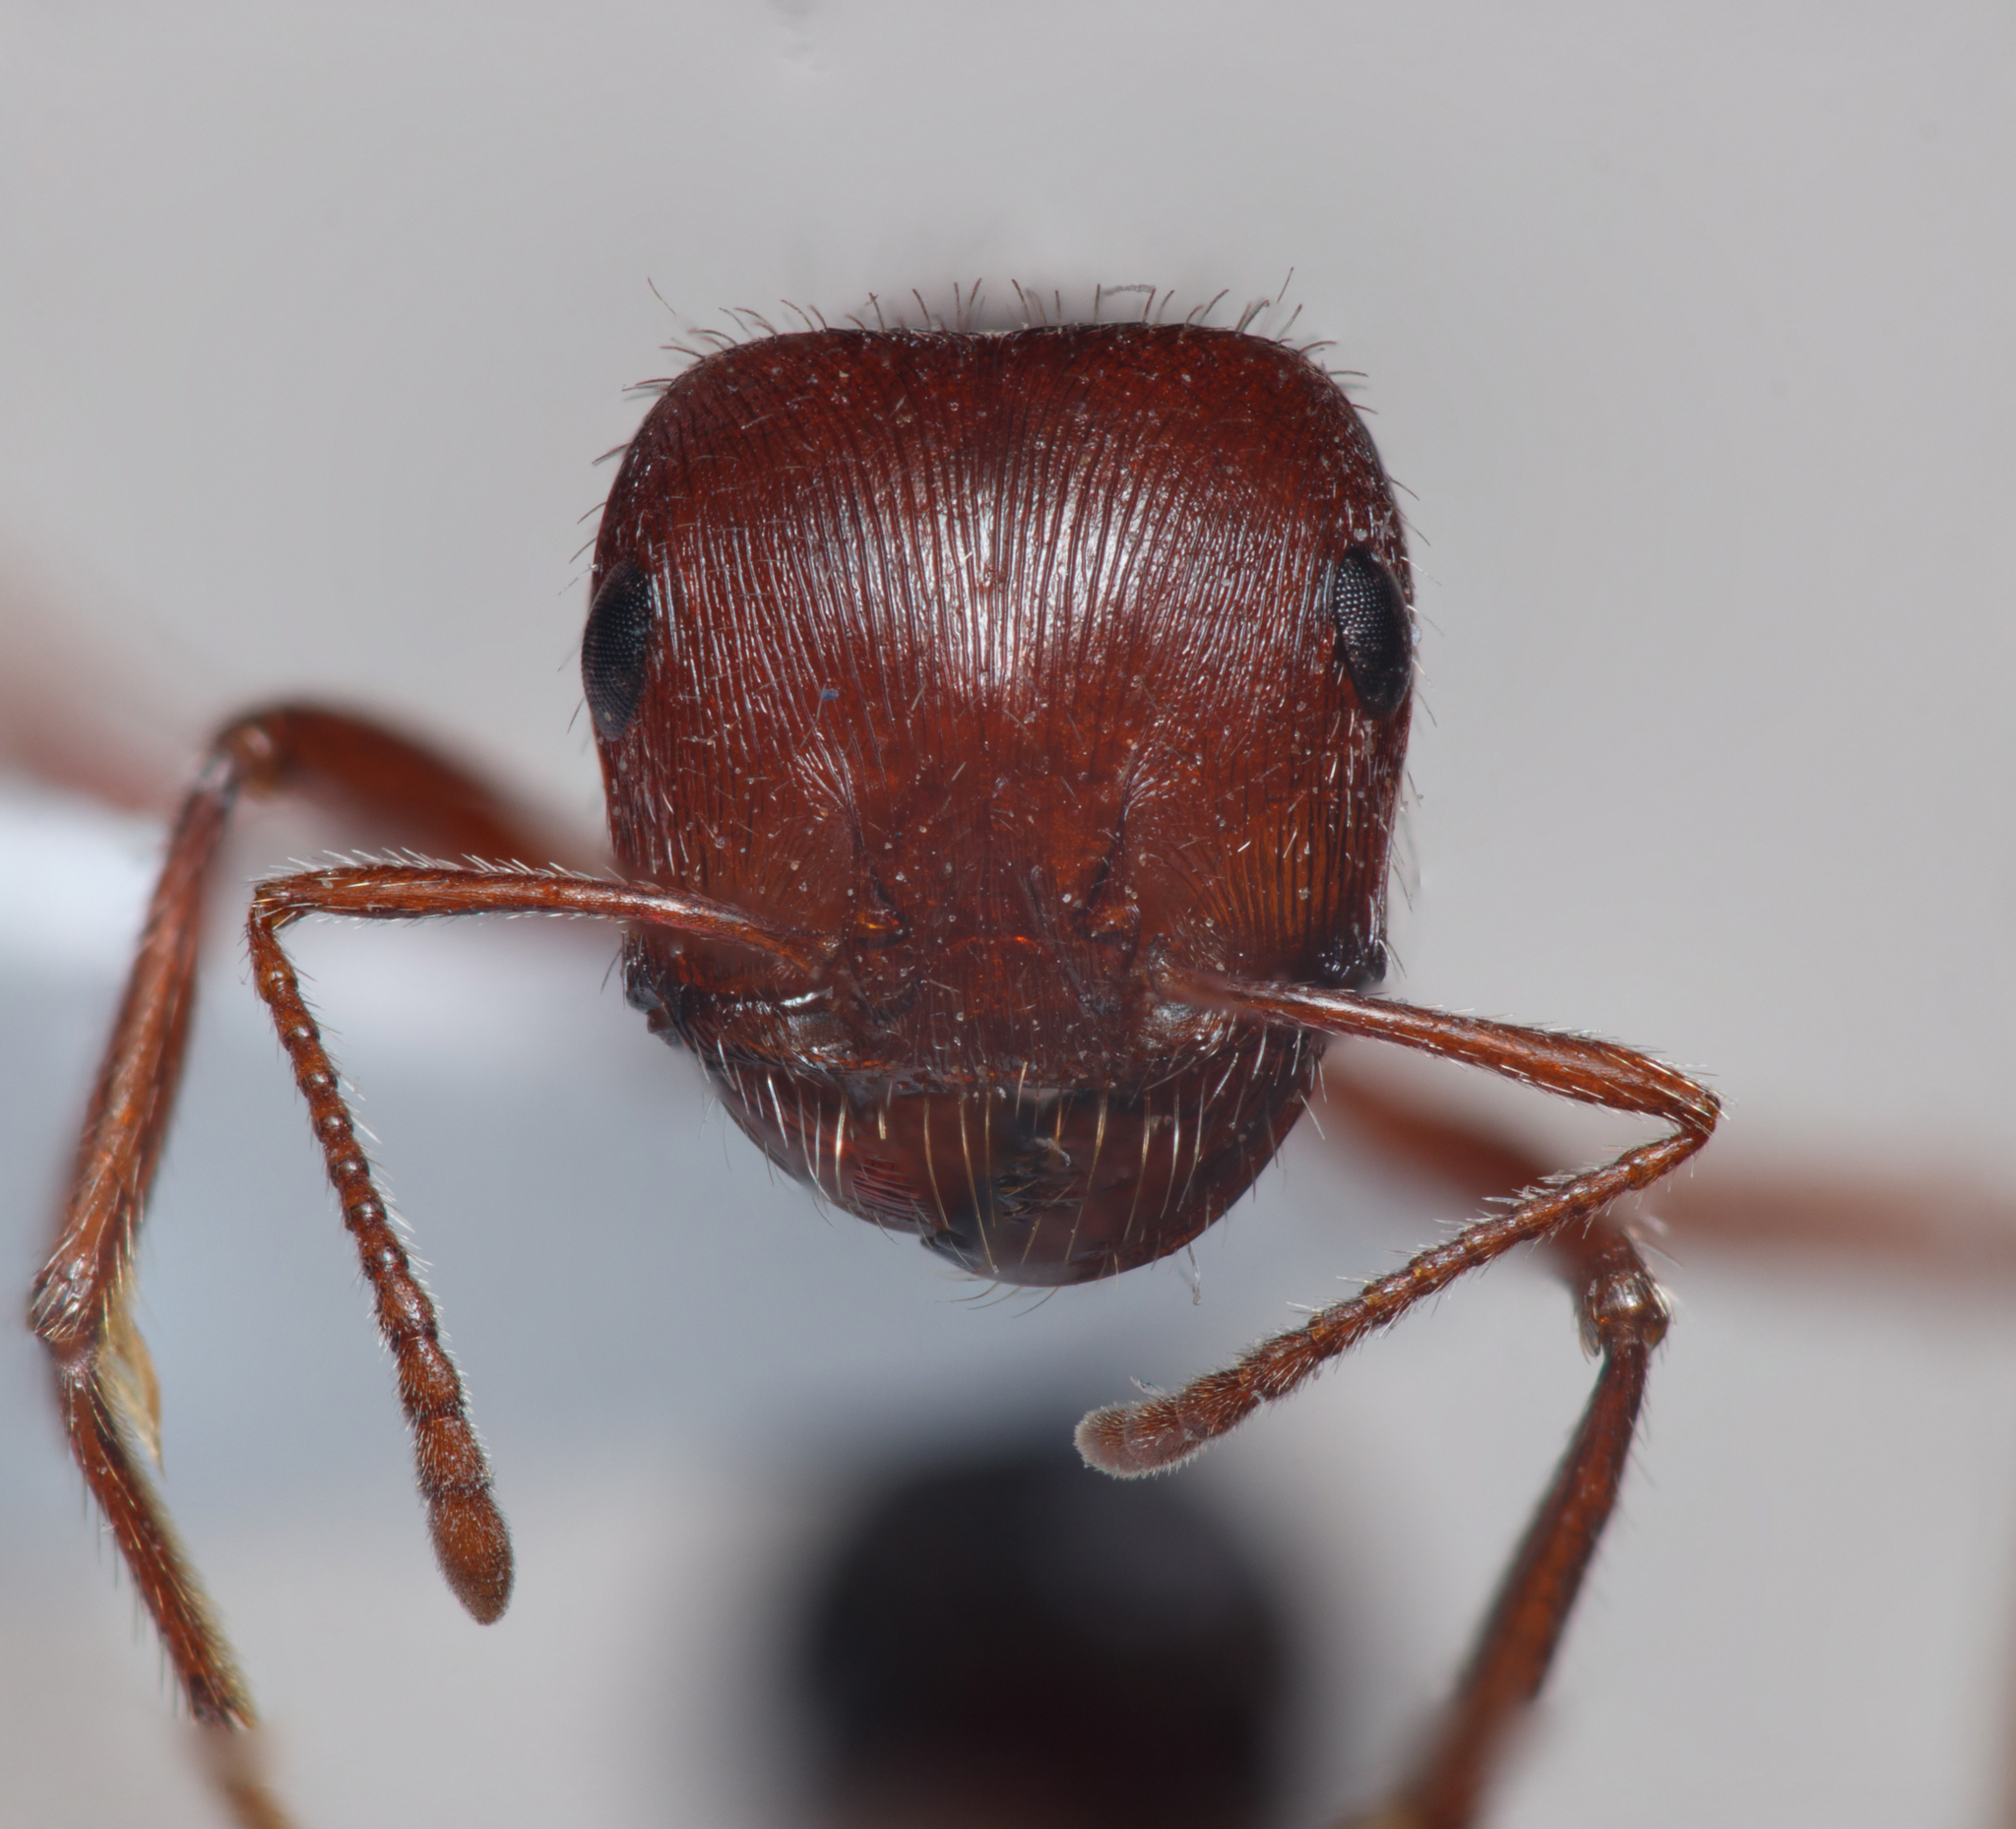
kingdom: Animalia
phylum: Arthropoda
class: Insecta
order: Hymenoptera
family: Formicidae
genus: Pogonomyrmex
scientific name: Pogonomyrmex californicus
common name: California harvester ant
